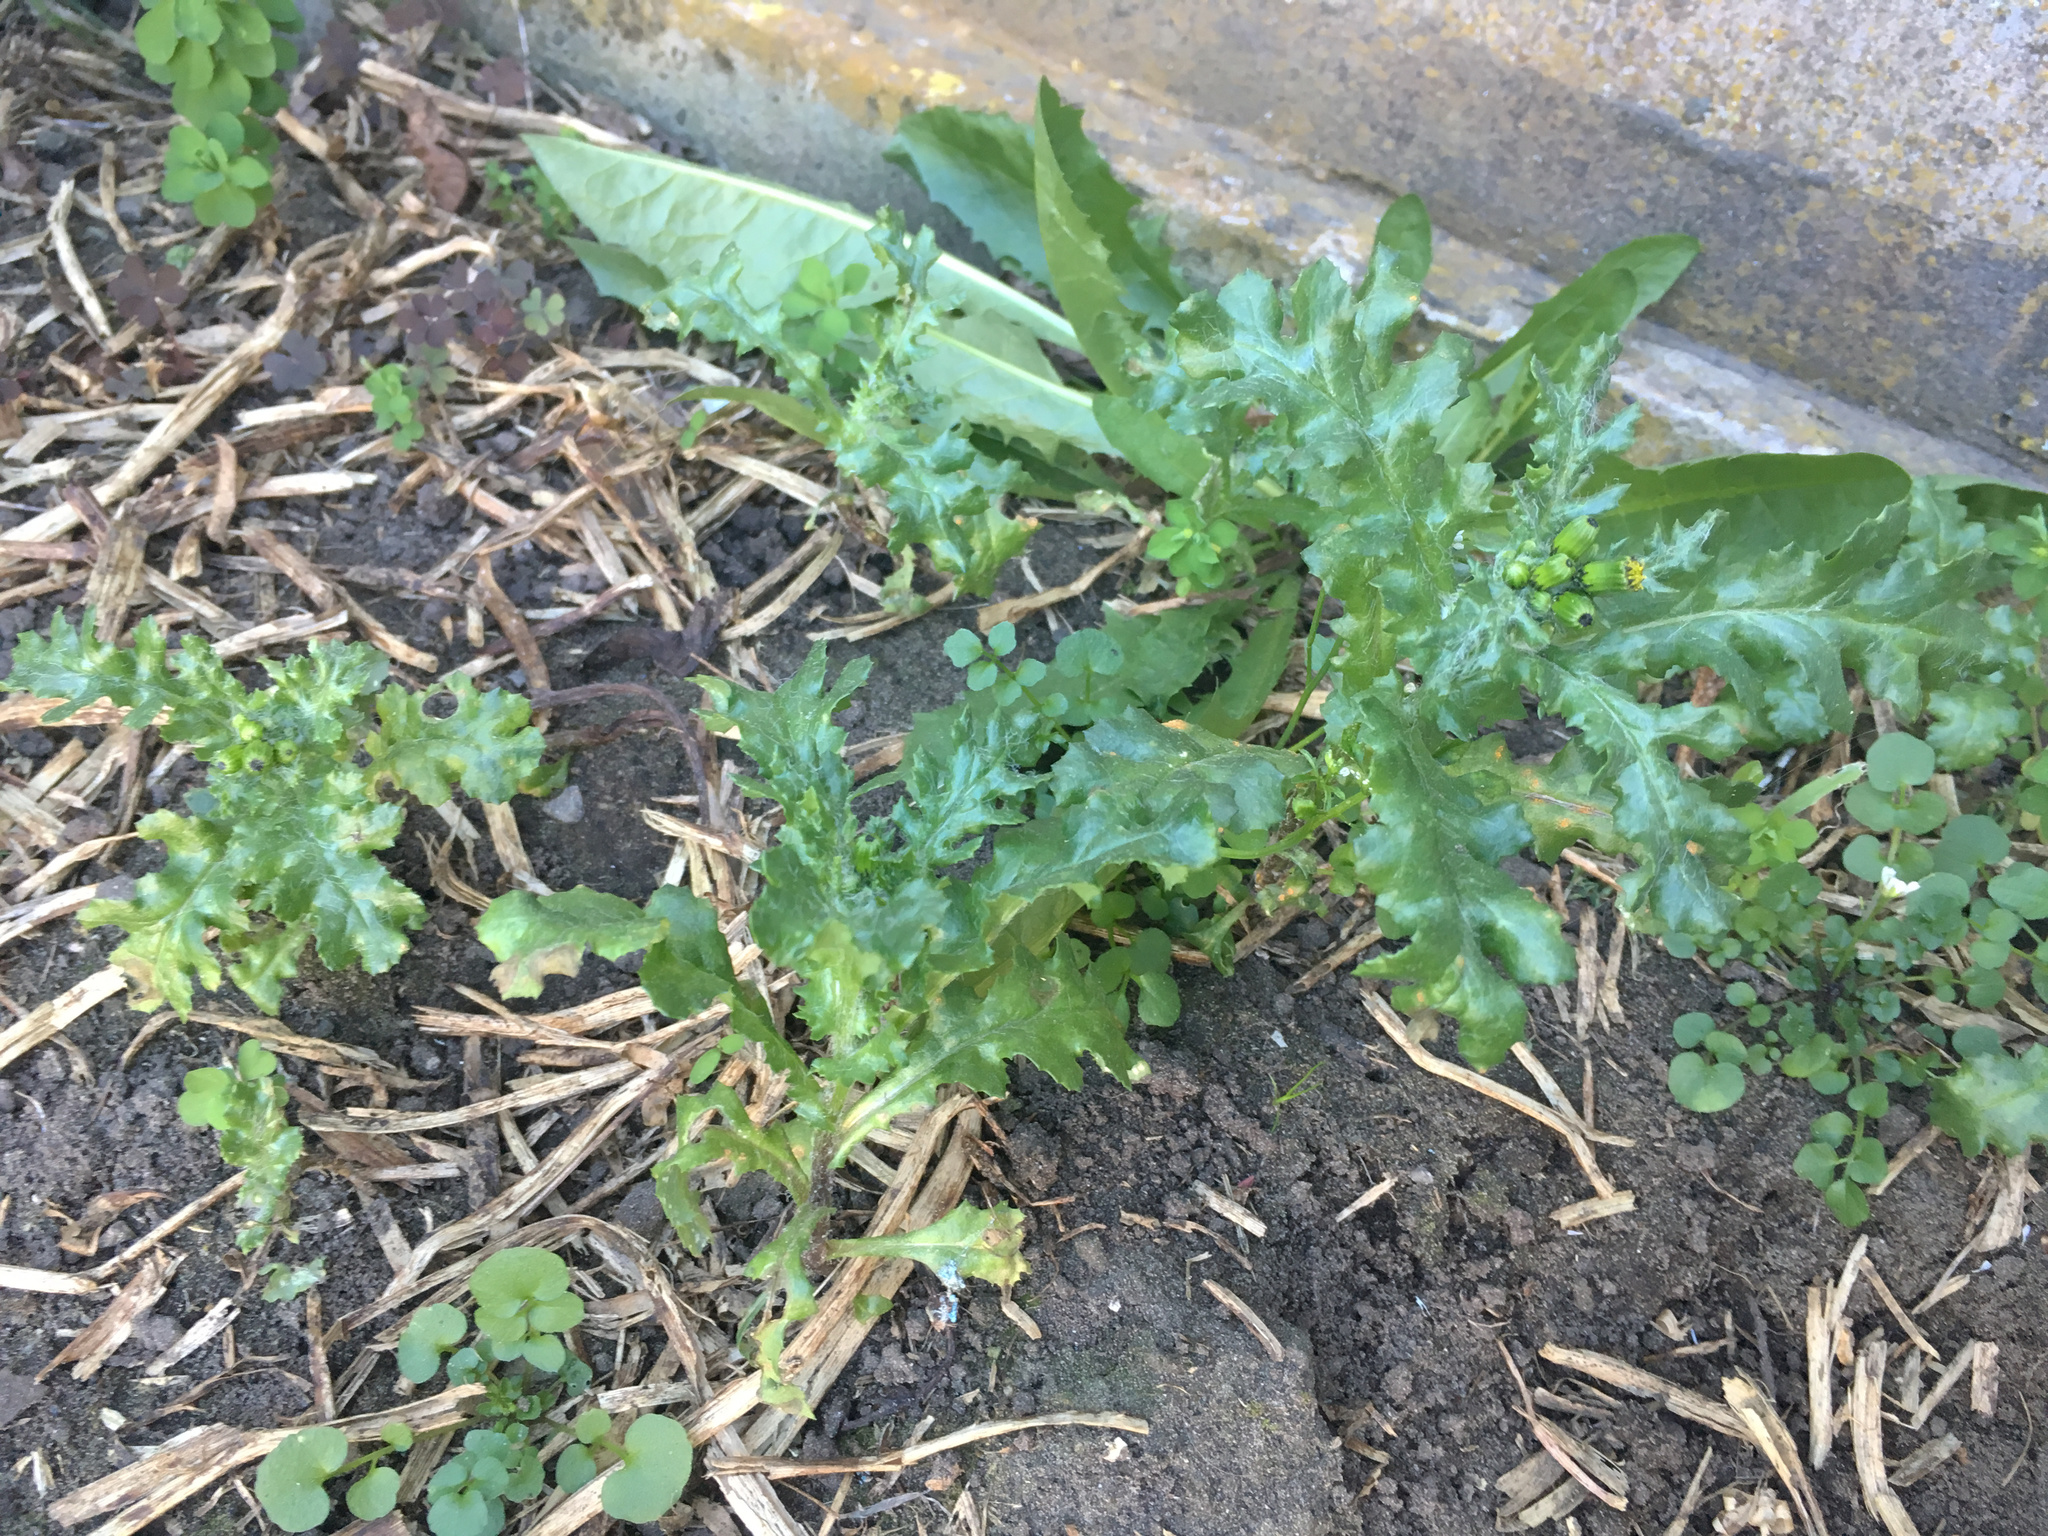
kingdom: Plantae
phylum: Tracheophyta
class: Magnoliopsida
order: Asterales
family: Asteraceae
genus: Senecio
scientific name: Senecio vulgaris
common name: Old-man-in-the-spring
